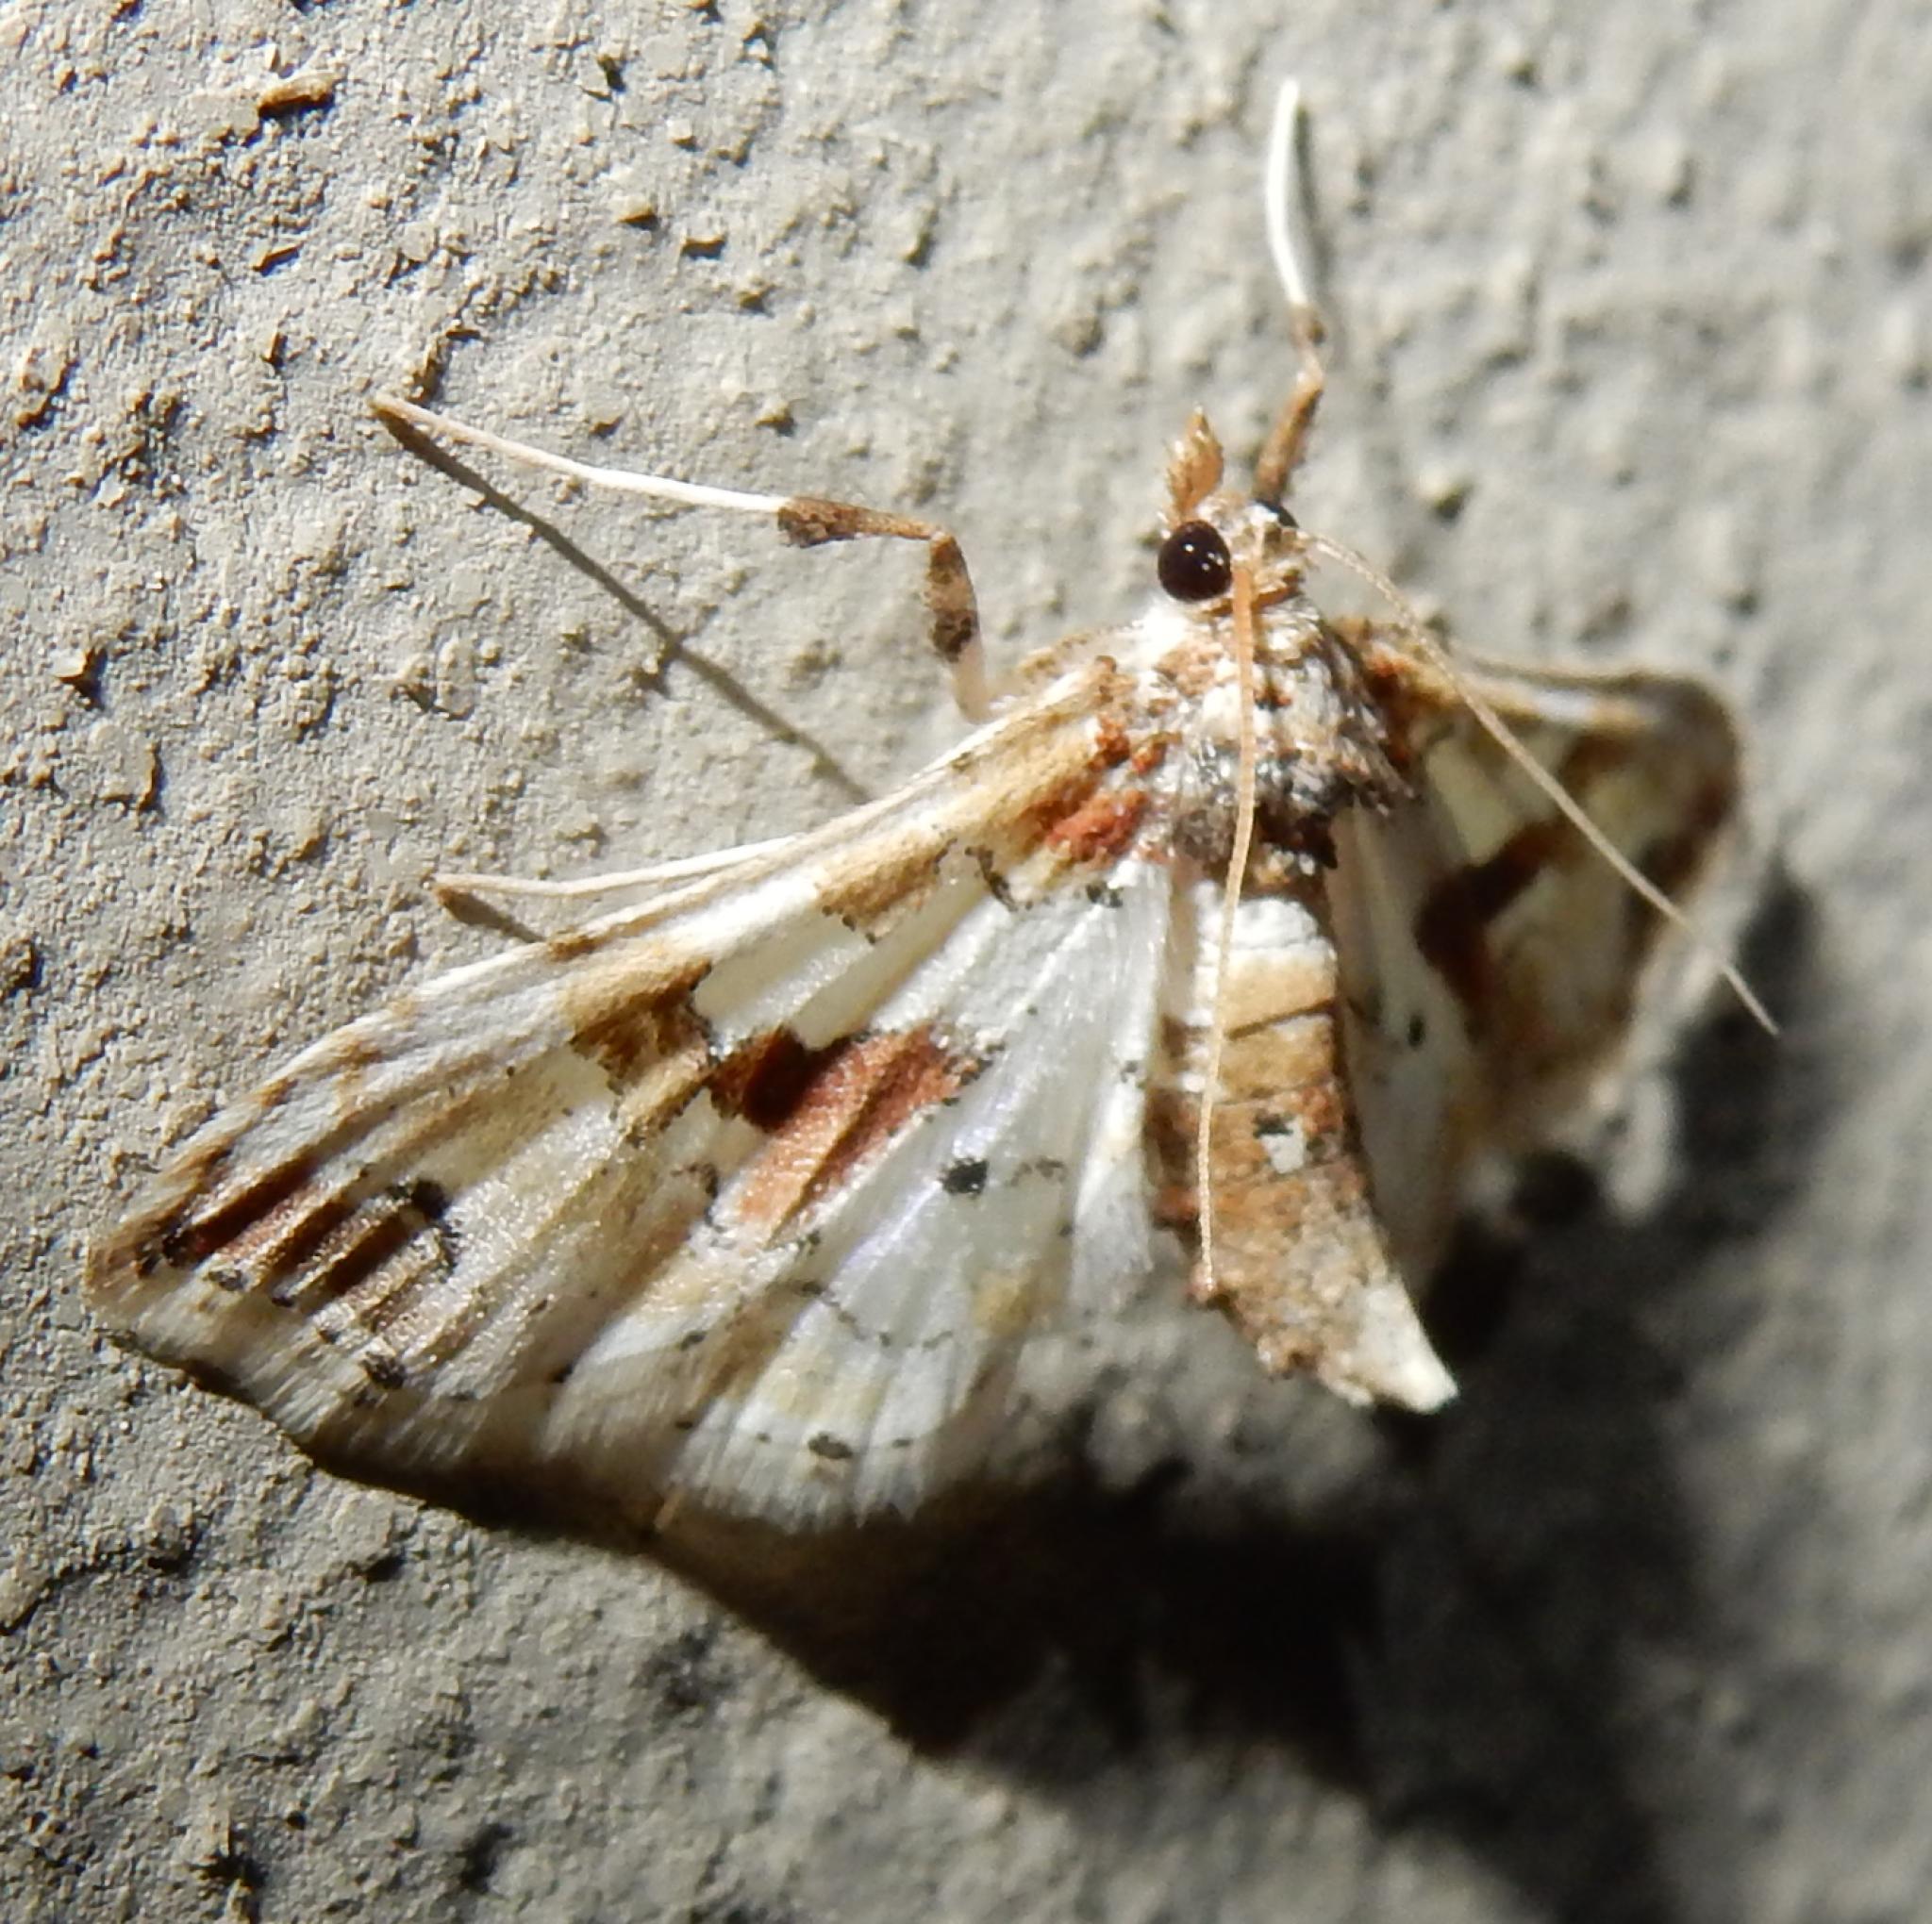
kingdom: Animalia
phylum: Arthropoda
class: Insecta
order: Lepidoptera
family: Crambidae
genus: Leucinodes
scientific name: Leucinodes pseudorbonalis
